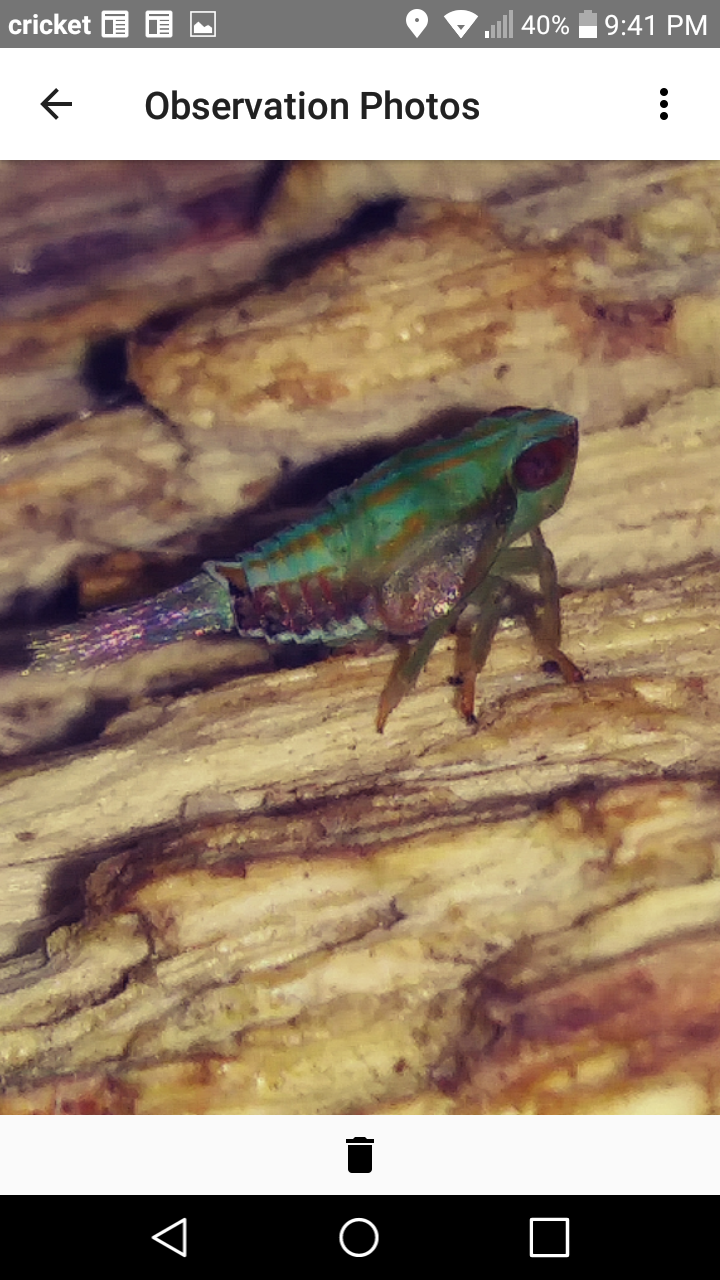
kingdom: Animalia
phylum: Arthropoda
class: Insecta
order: Hemiptera
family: Issidae
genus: Thionia
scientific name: Thionia bullata
